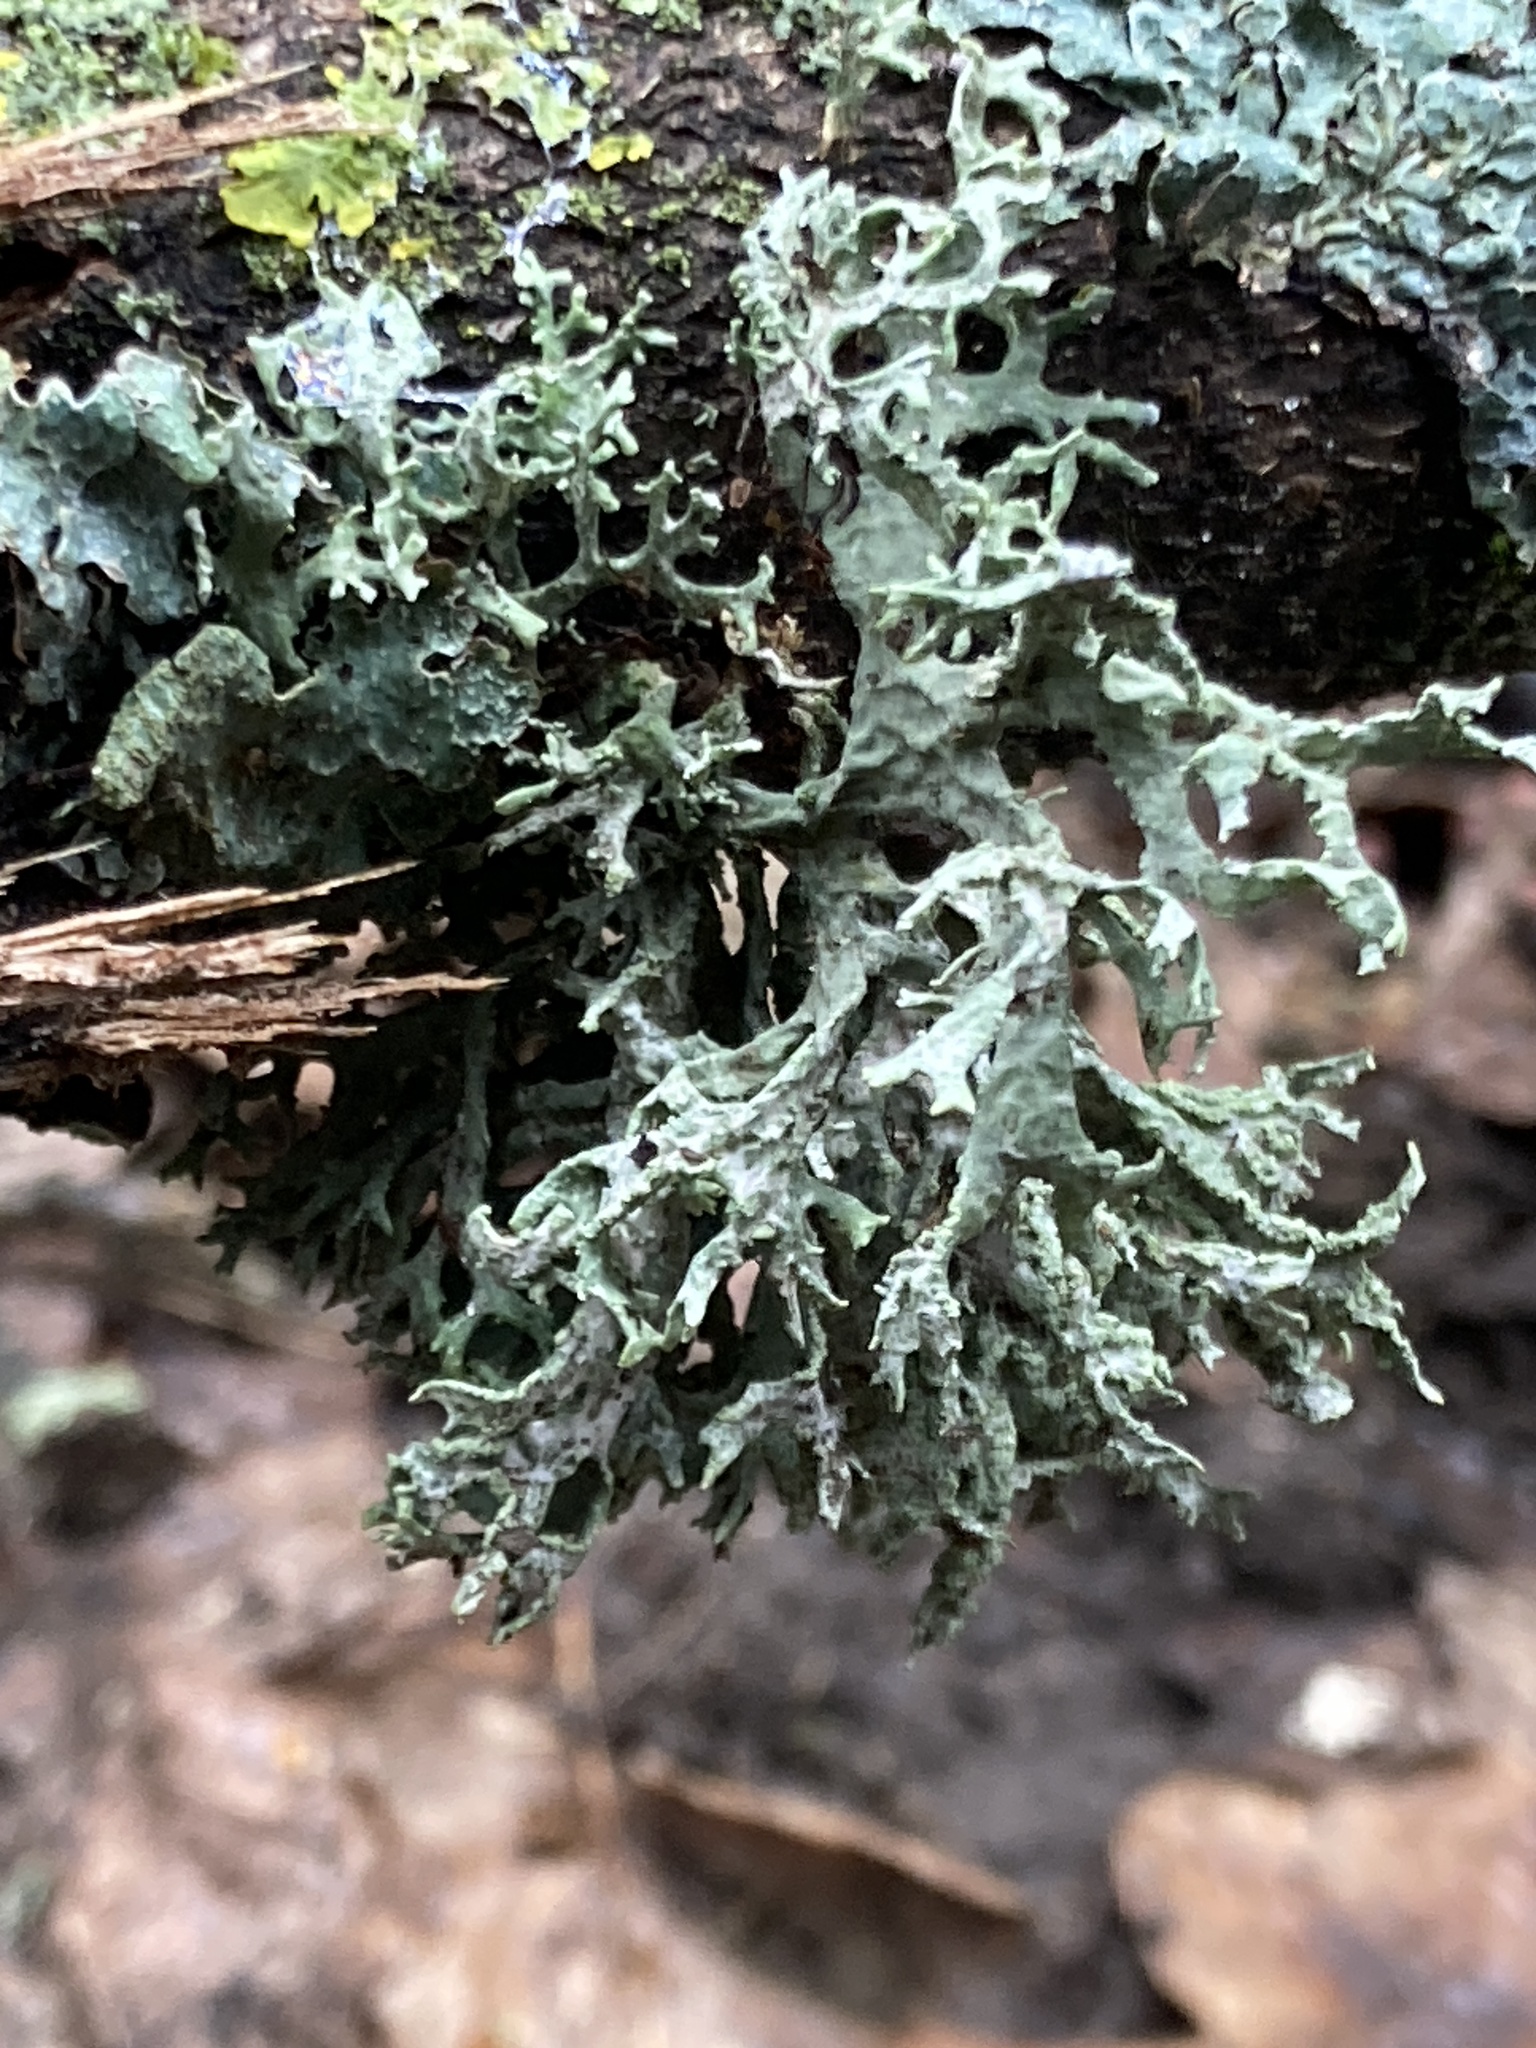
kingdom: Fungi
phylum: Ascomycota
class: Lecanoromycetes
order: Lecanorales
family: Parmeliaceae
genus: Evernia
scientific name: Evernia prunastri
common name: Oak moss
